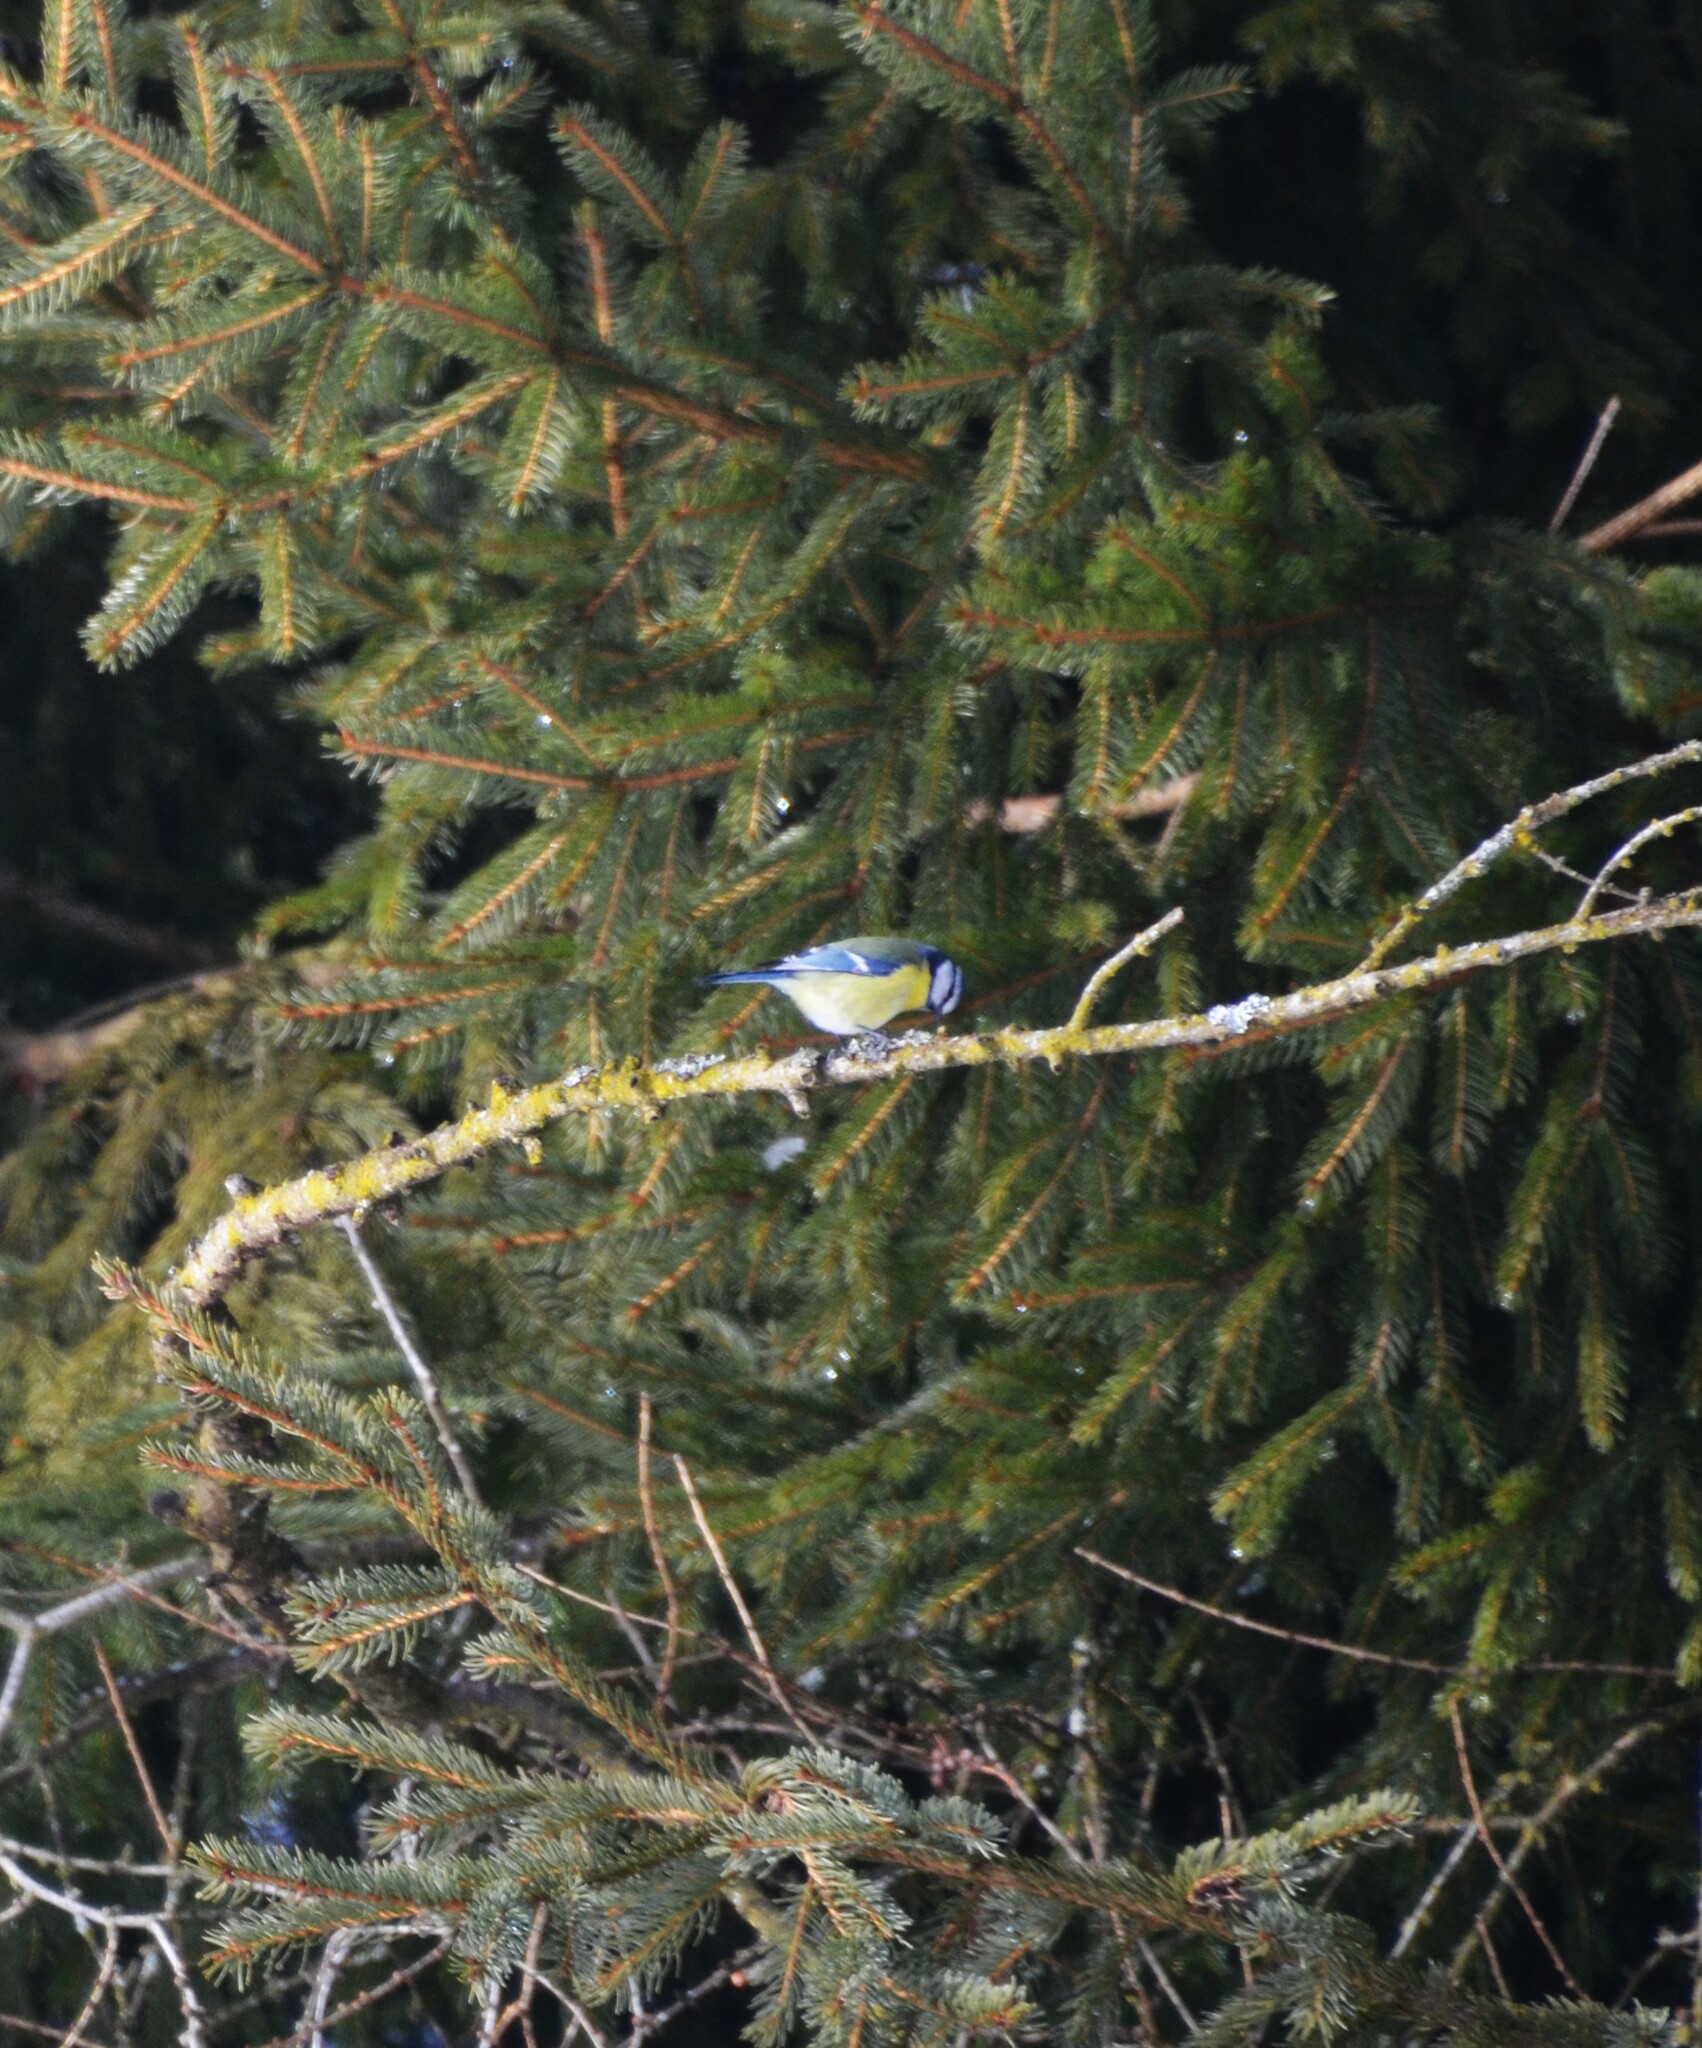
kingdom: Animalia
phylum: Chordata
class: Aves
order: Passeriformes
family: Paridae
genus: Cyanistes
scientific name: Cyanistes caeruleus
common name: Eurasian blue tit
